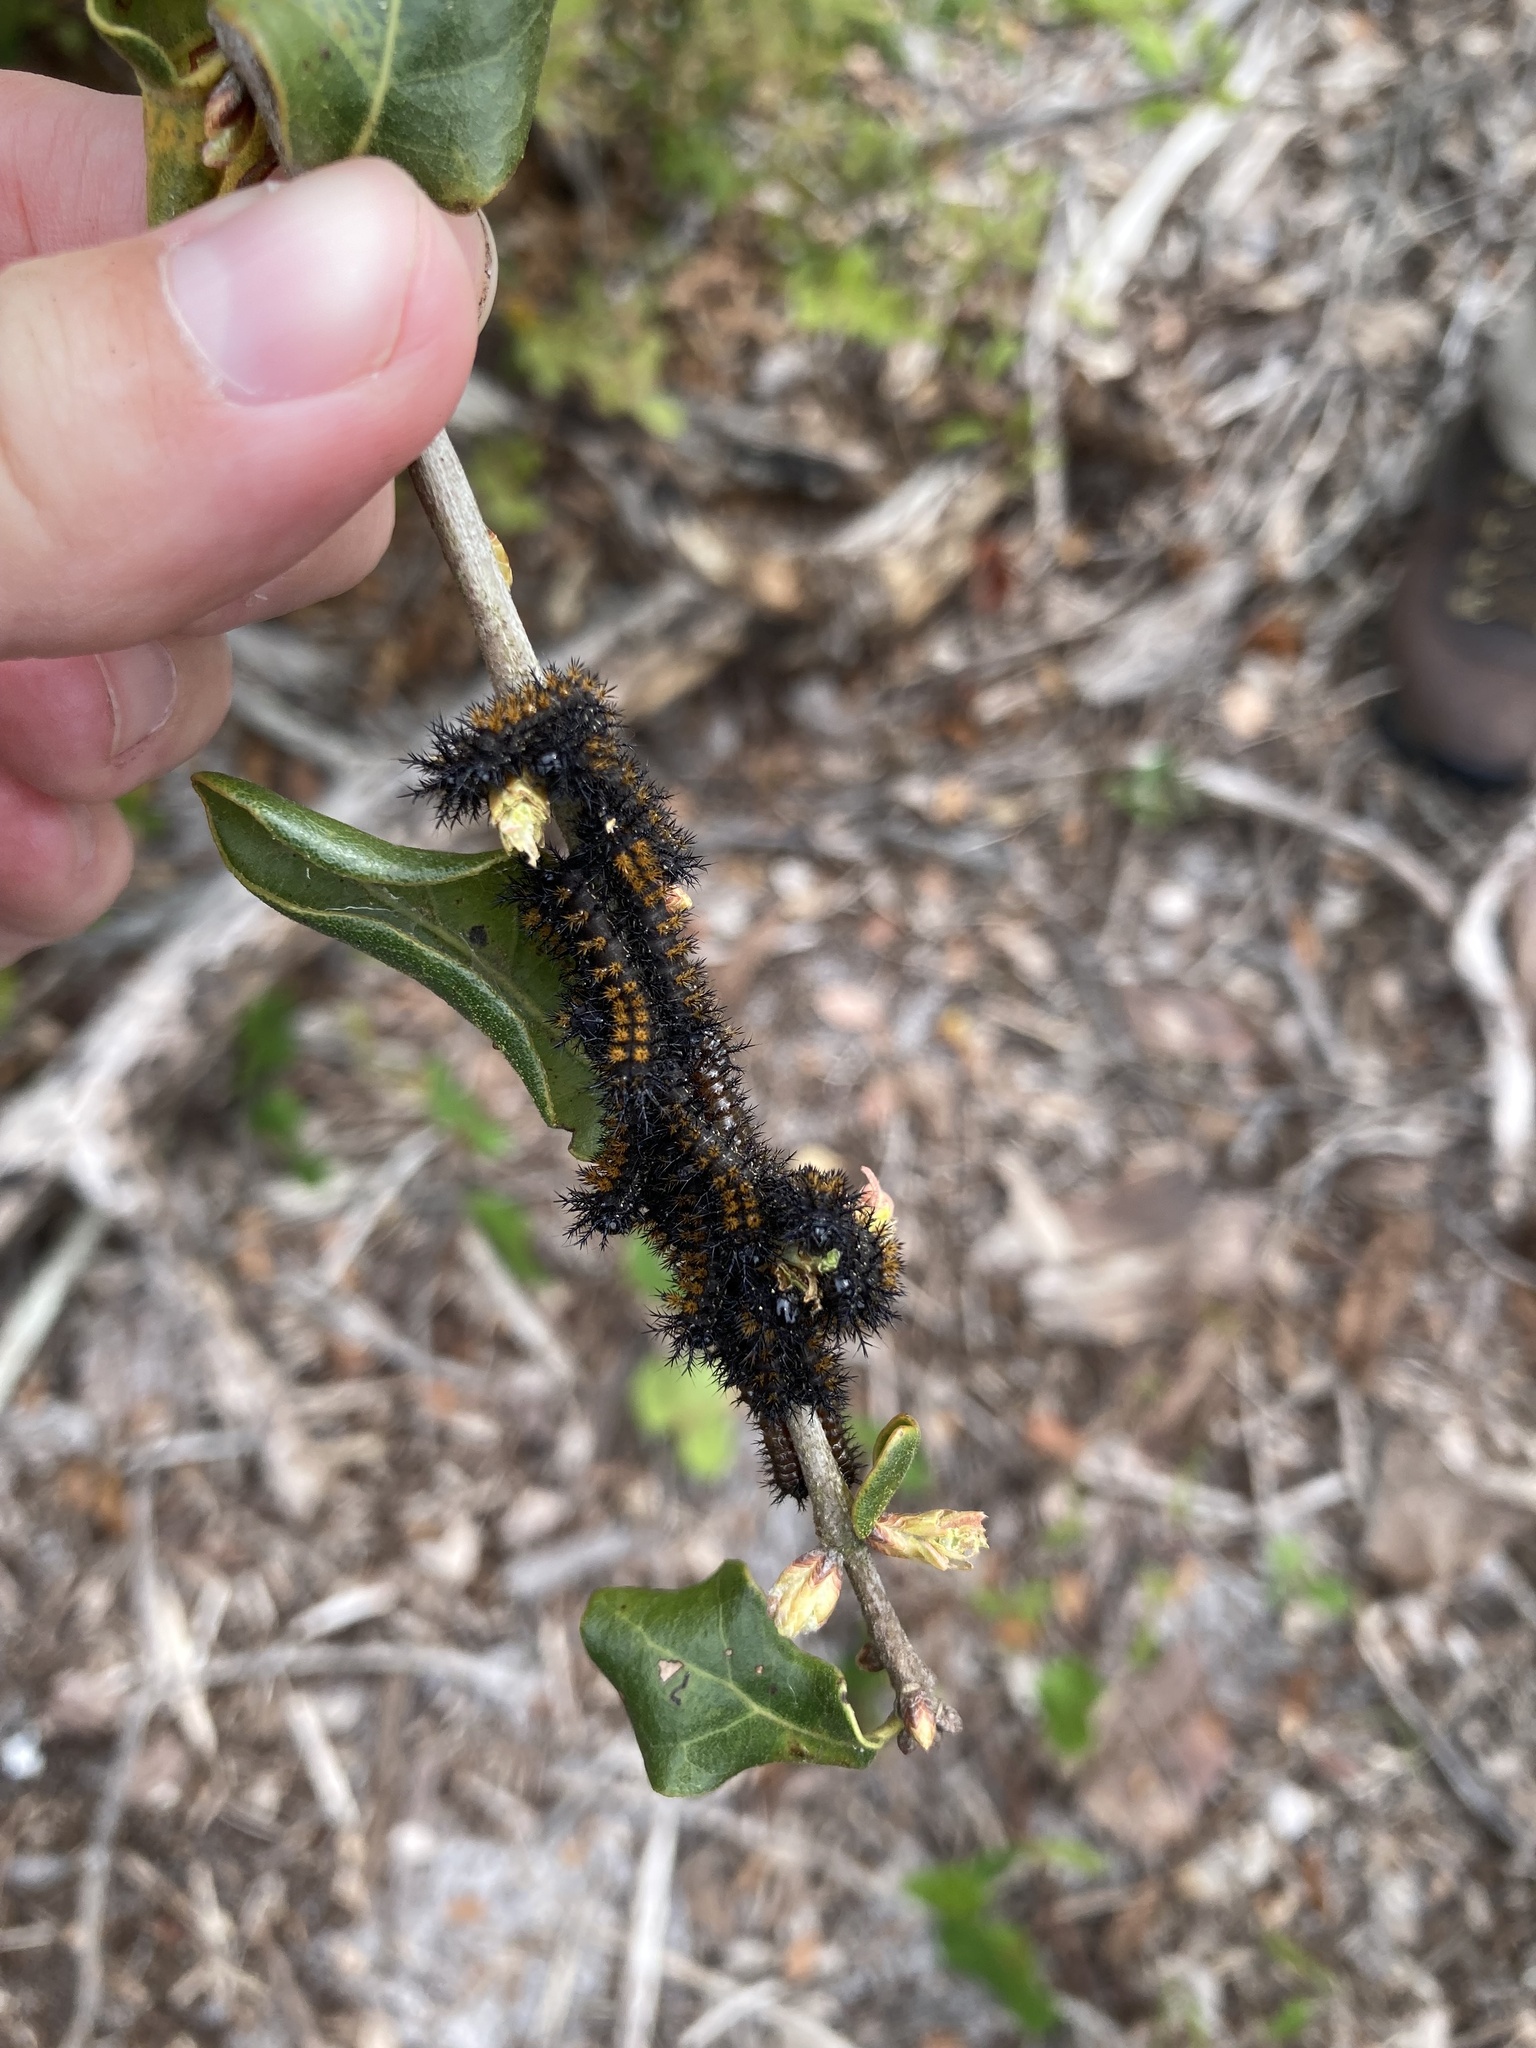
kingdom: Animalia
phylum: Arthropoda
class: Insecta
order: Lepidoptera
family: Saturniidae
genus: Hemileuca
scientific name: Hemileuca maia
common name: Eastern buckmoth
